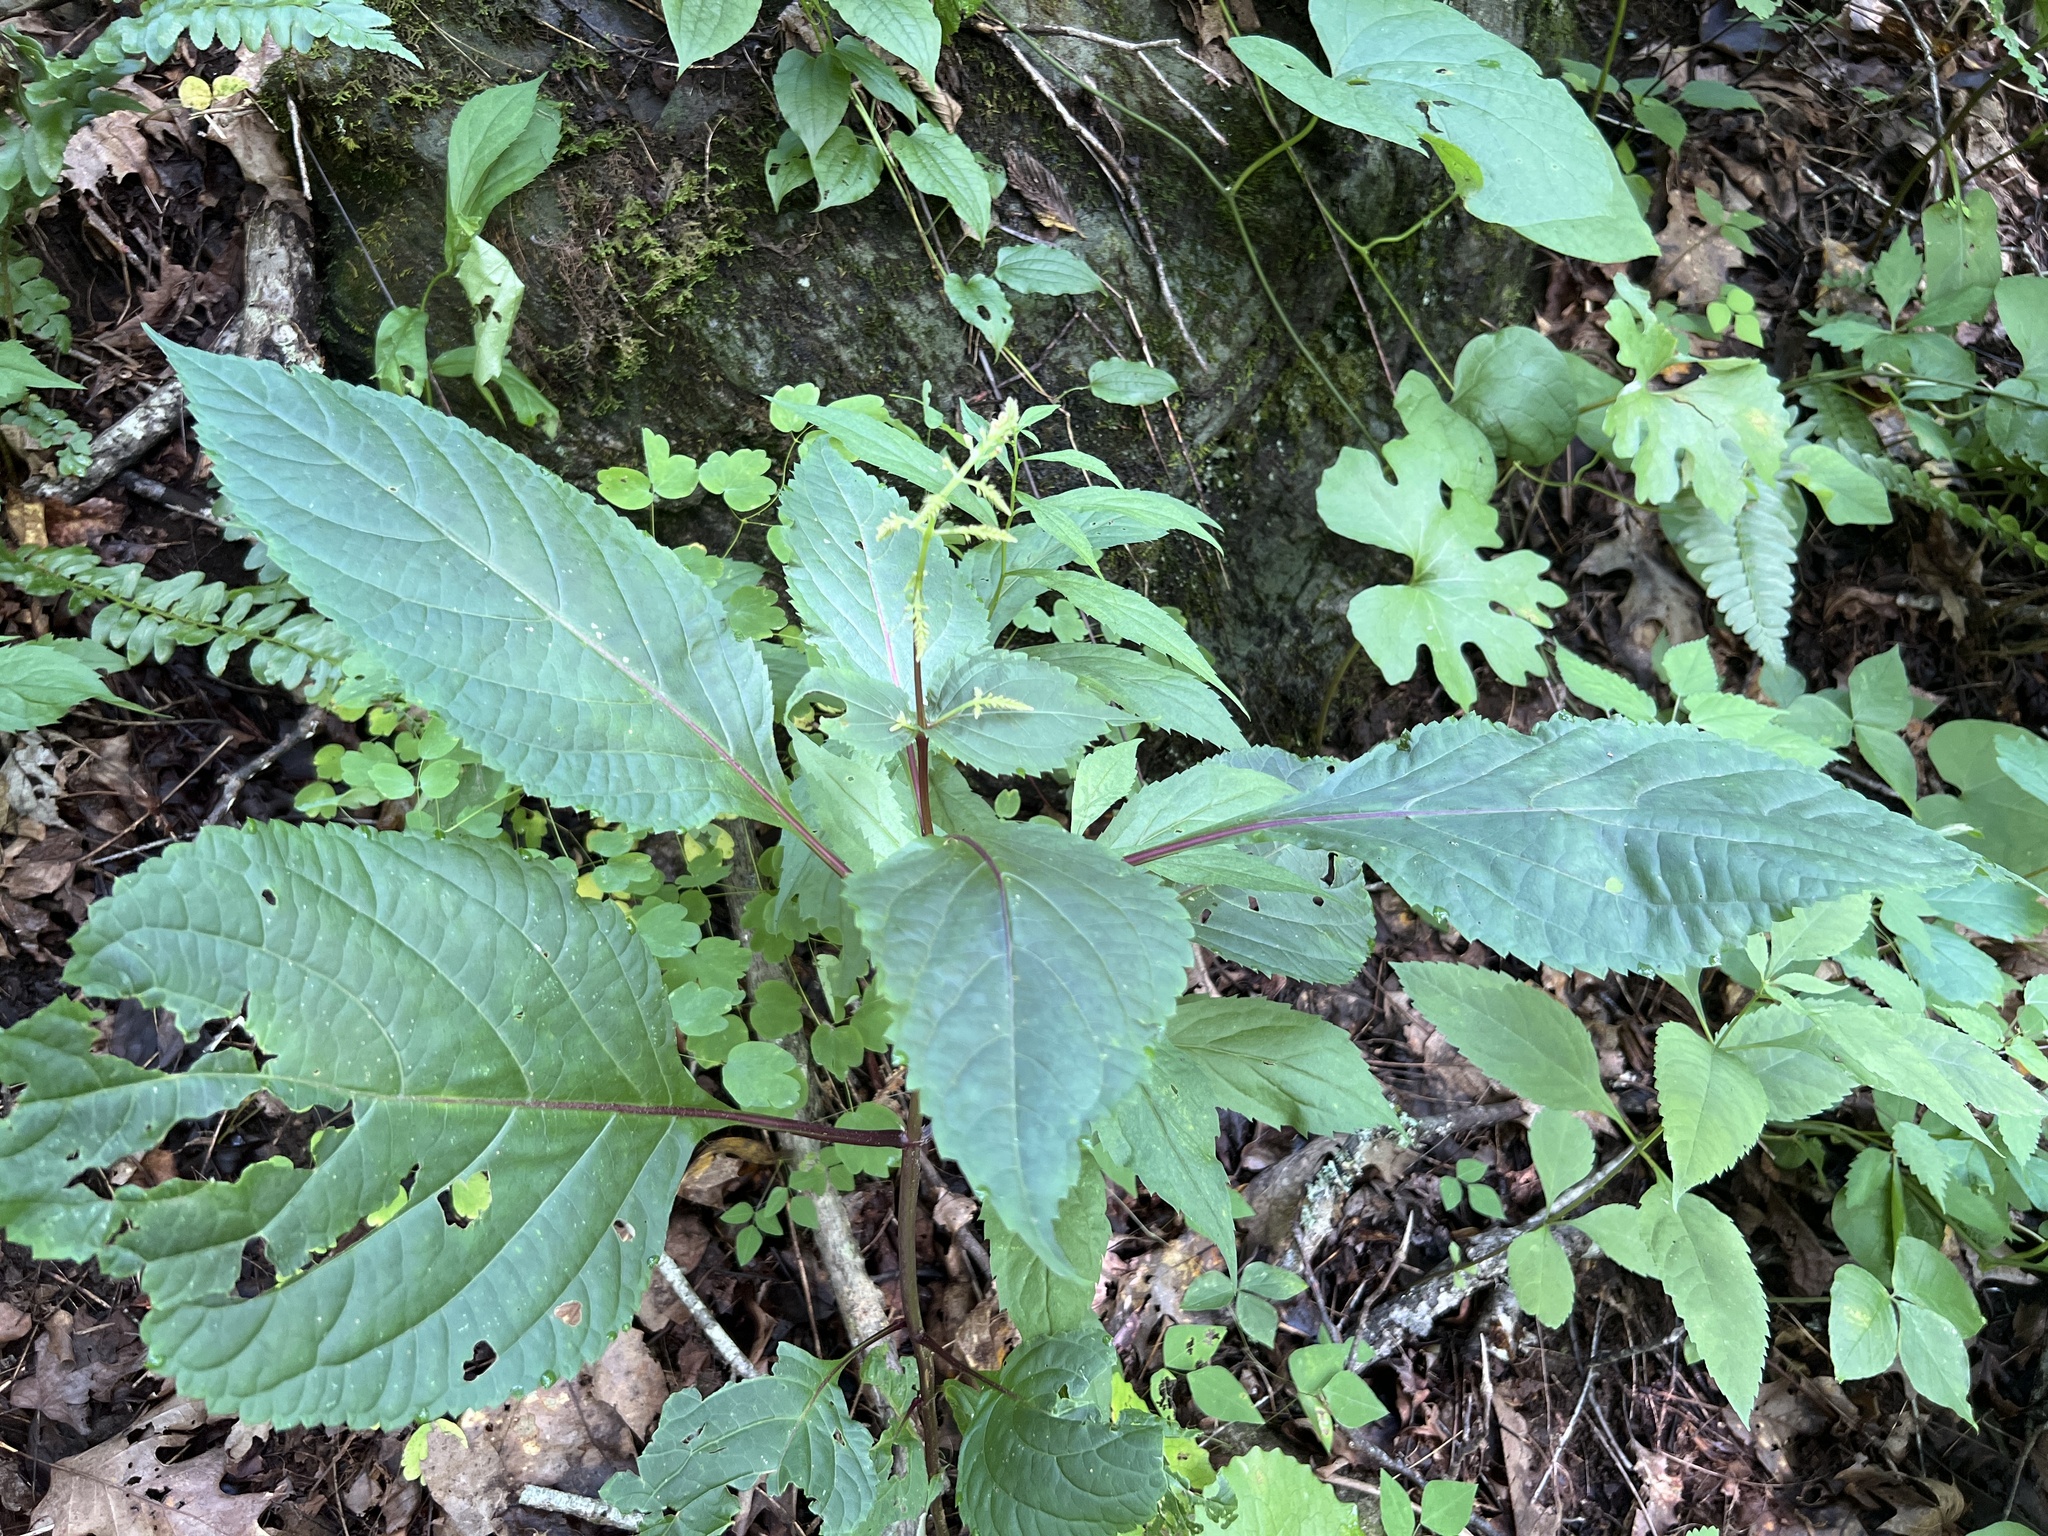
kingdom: Plantae
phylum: Tracheophyta
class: Magnoliopsida
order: Lamiales
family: Lamiaceae
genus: Collinsonia
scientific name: Collinsonia canadensis
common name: Northern horsebalm
